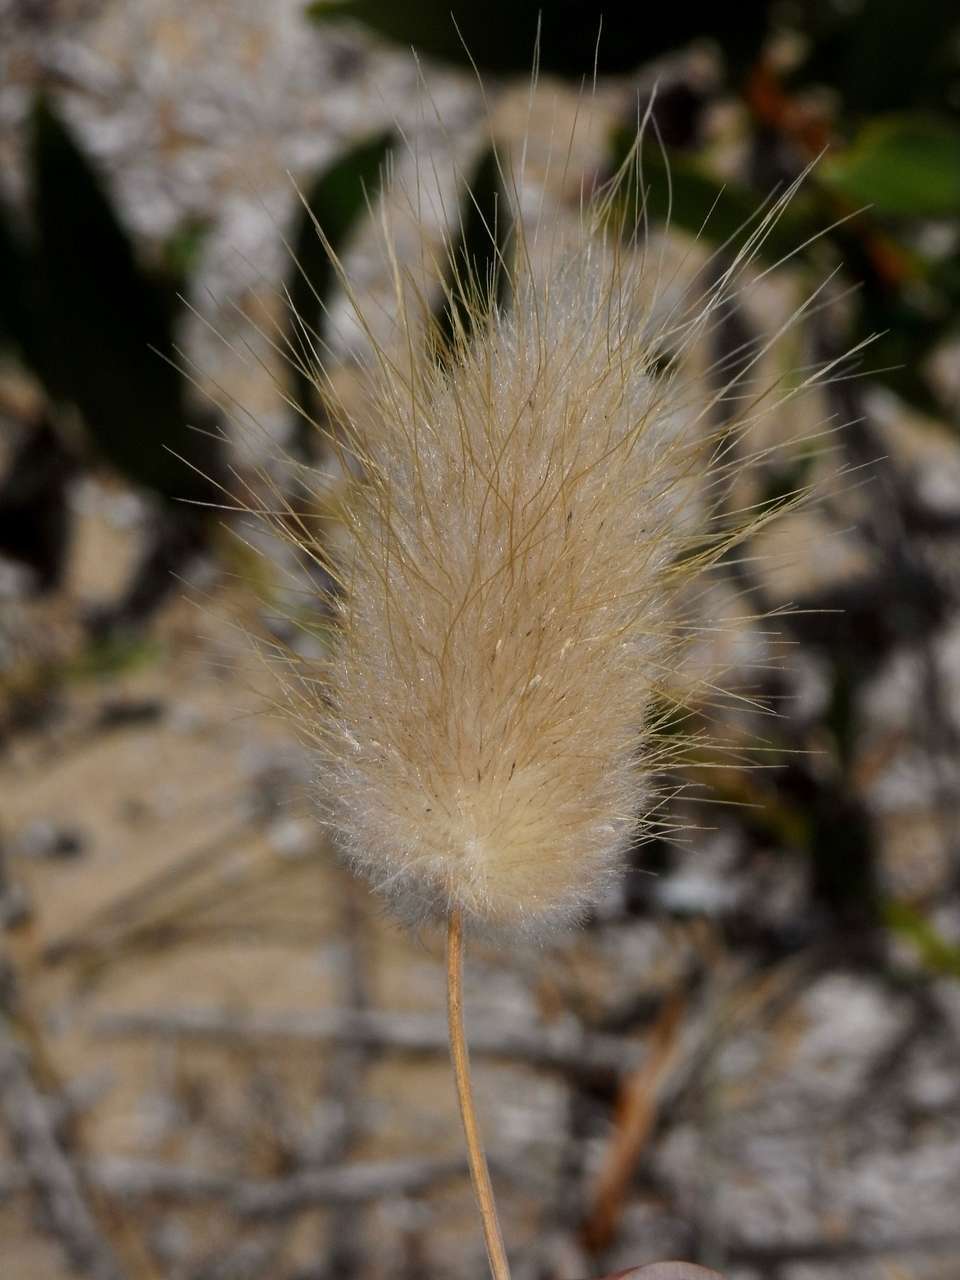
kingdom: Plantae
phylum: Tracheophyta
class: Liliopsida
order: Poales
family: Poaceae
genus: Lagurus
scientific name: Lagurus ovatus
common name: Hare's-tail
